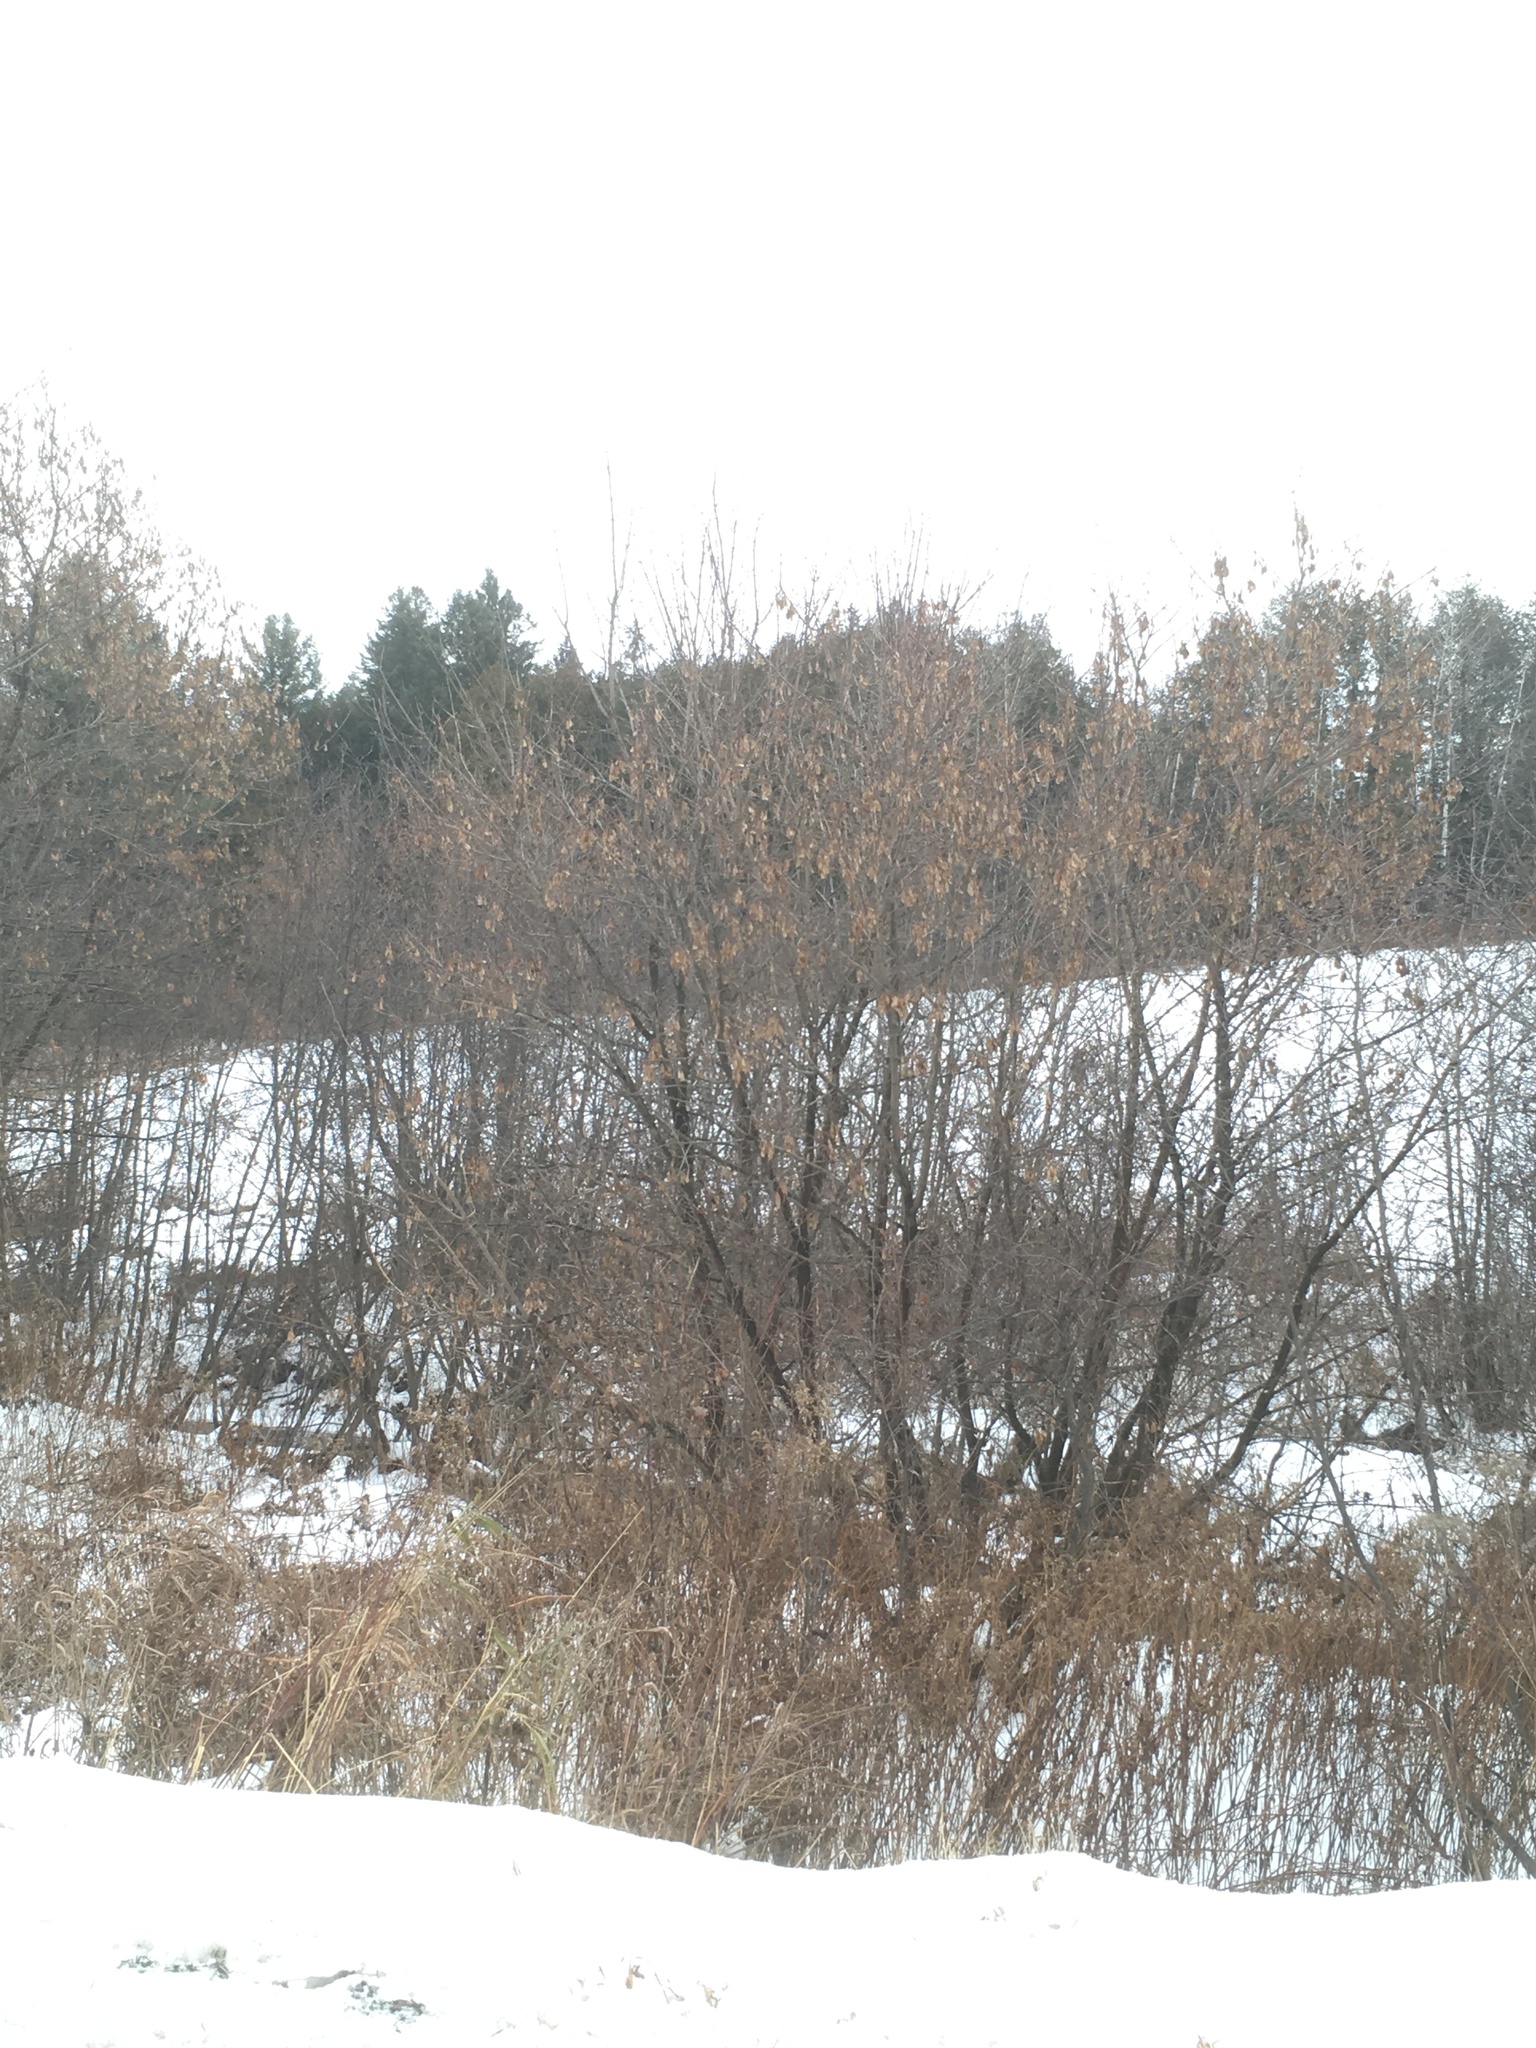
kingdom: Plantae
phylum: Tracheophyta
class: Magnoliopsida
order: Sapindales
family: Sapindaceae
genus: Acer
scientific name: Acer negundo
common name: Ashleaf maple
